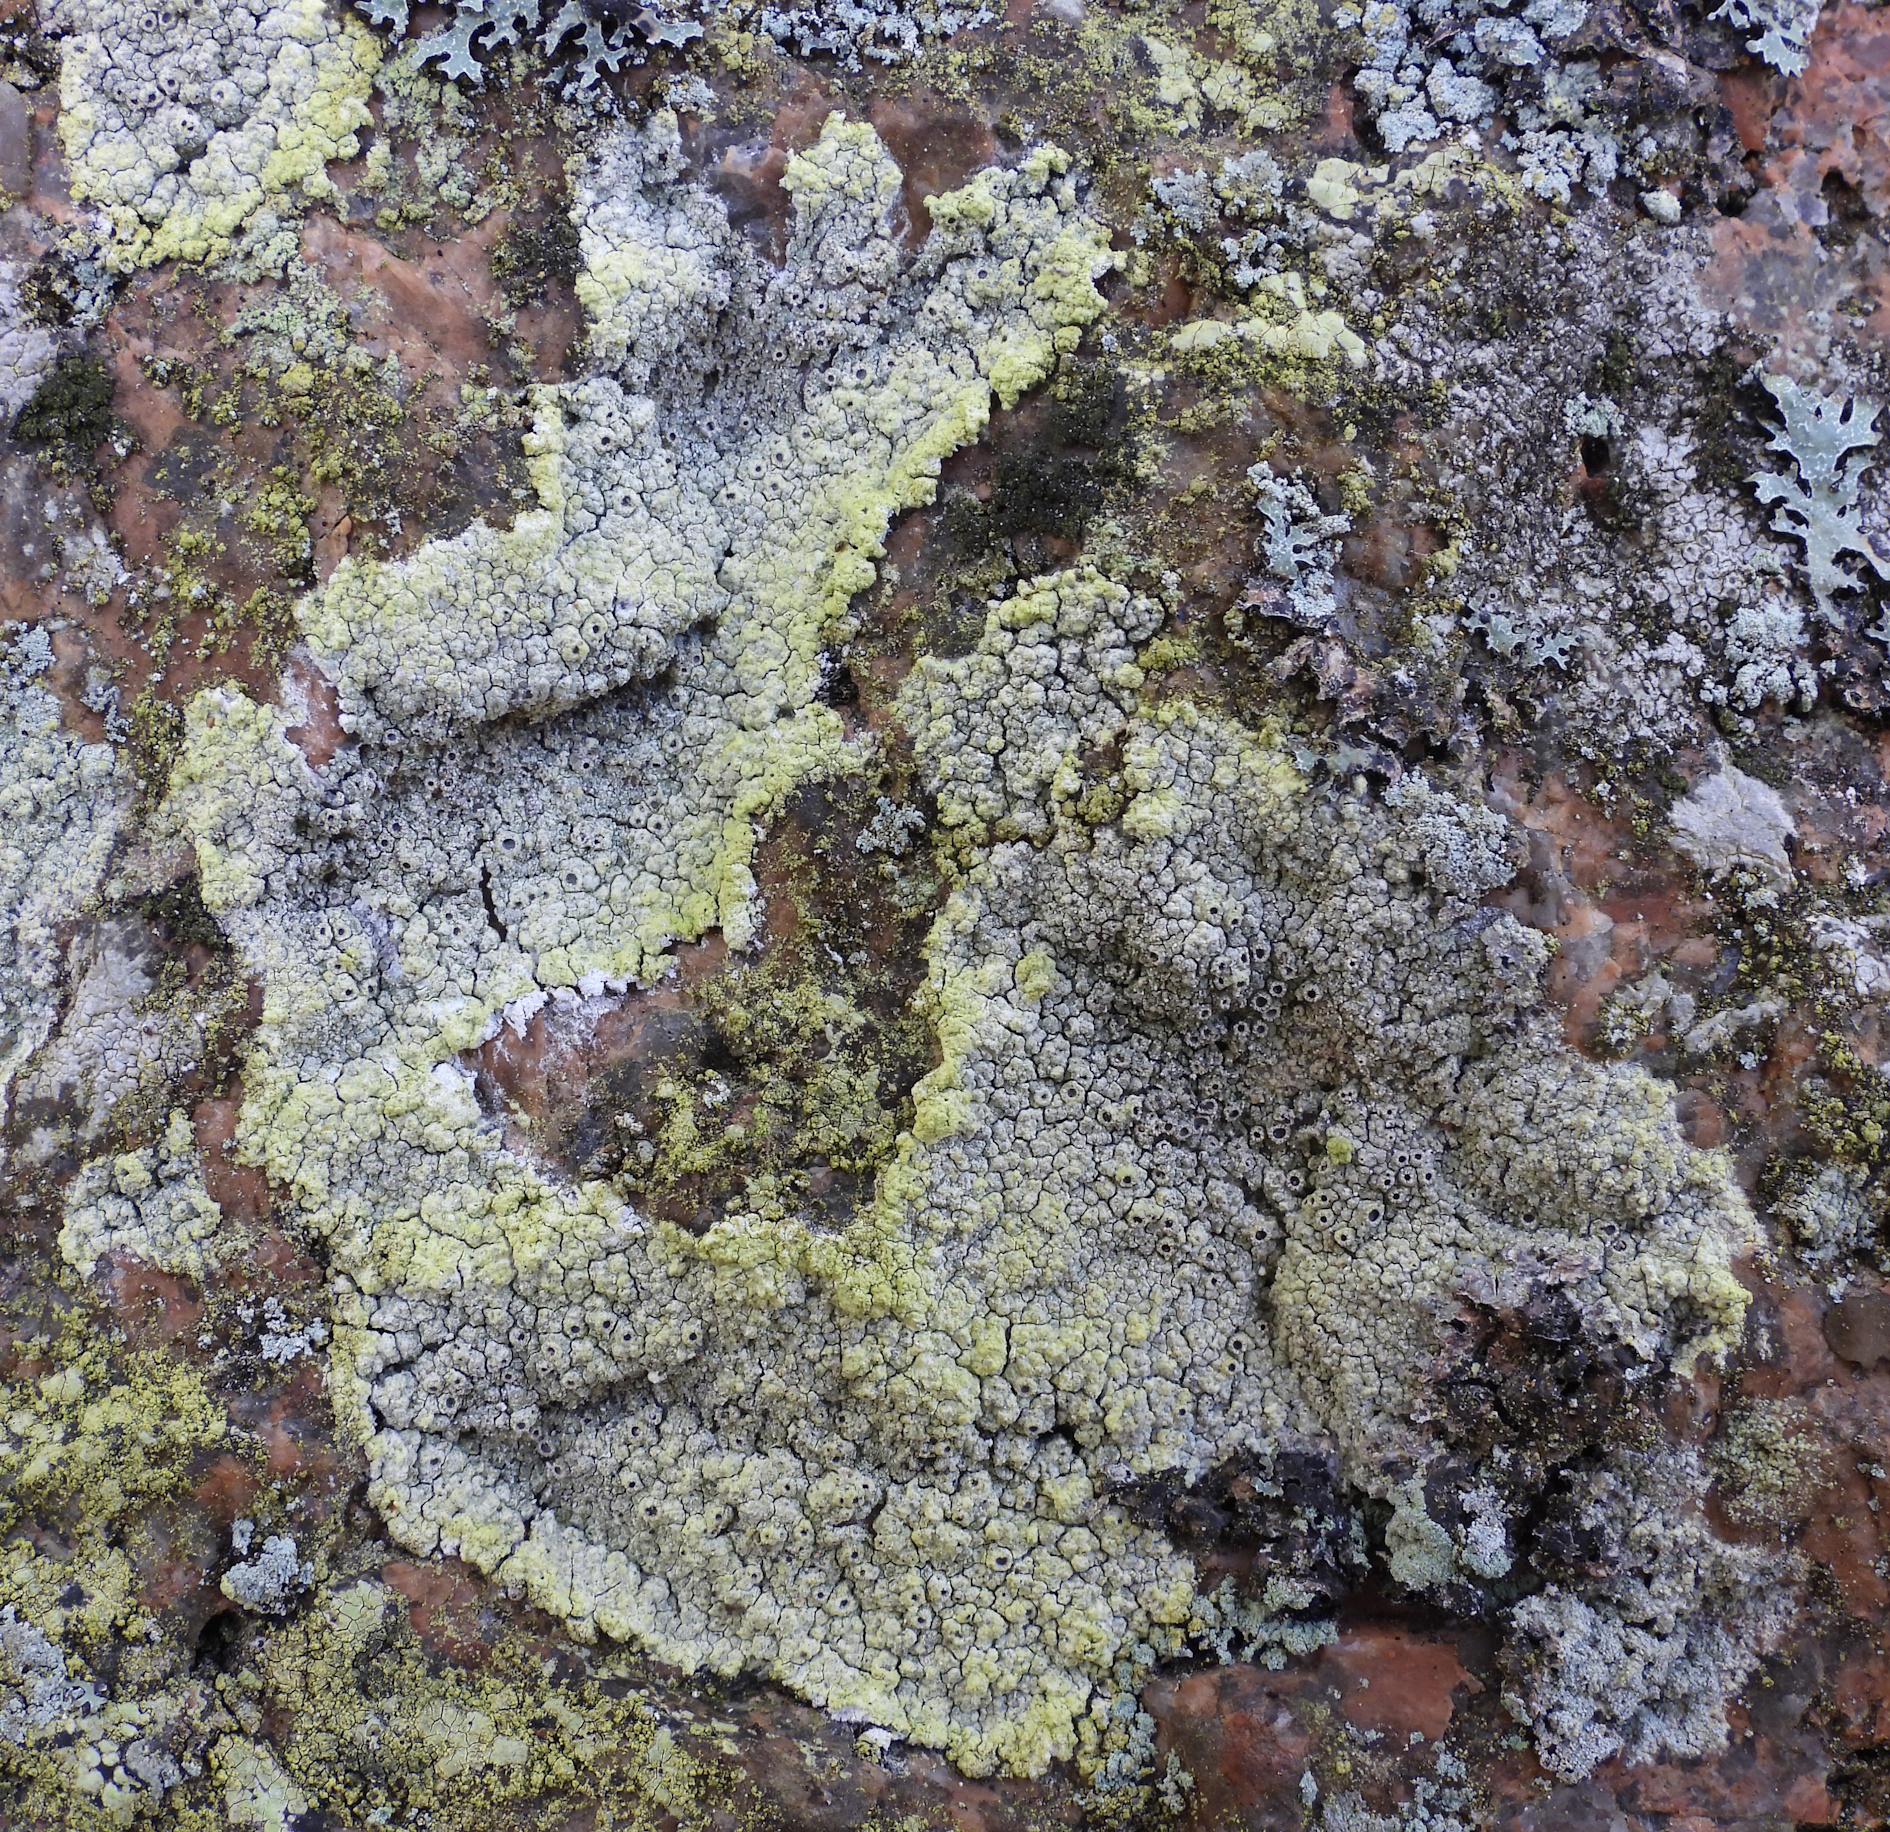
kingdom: Fungi
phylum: Ascomycota
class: Lecanoromycetes
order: Ostropales
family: Graphidaceae
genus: Diploschistes
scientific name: Diploschistes scruposus
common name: Crater lichen
